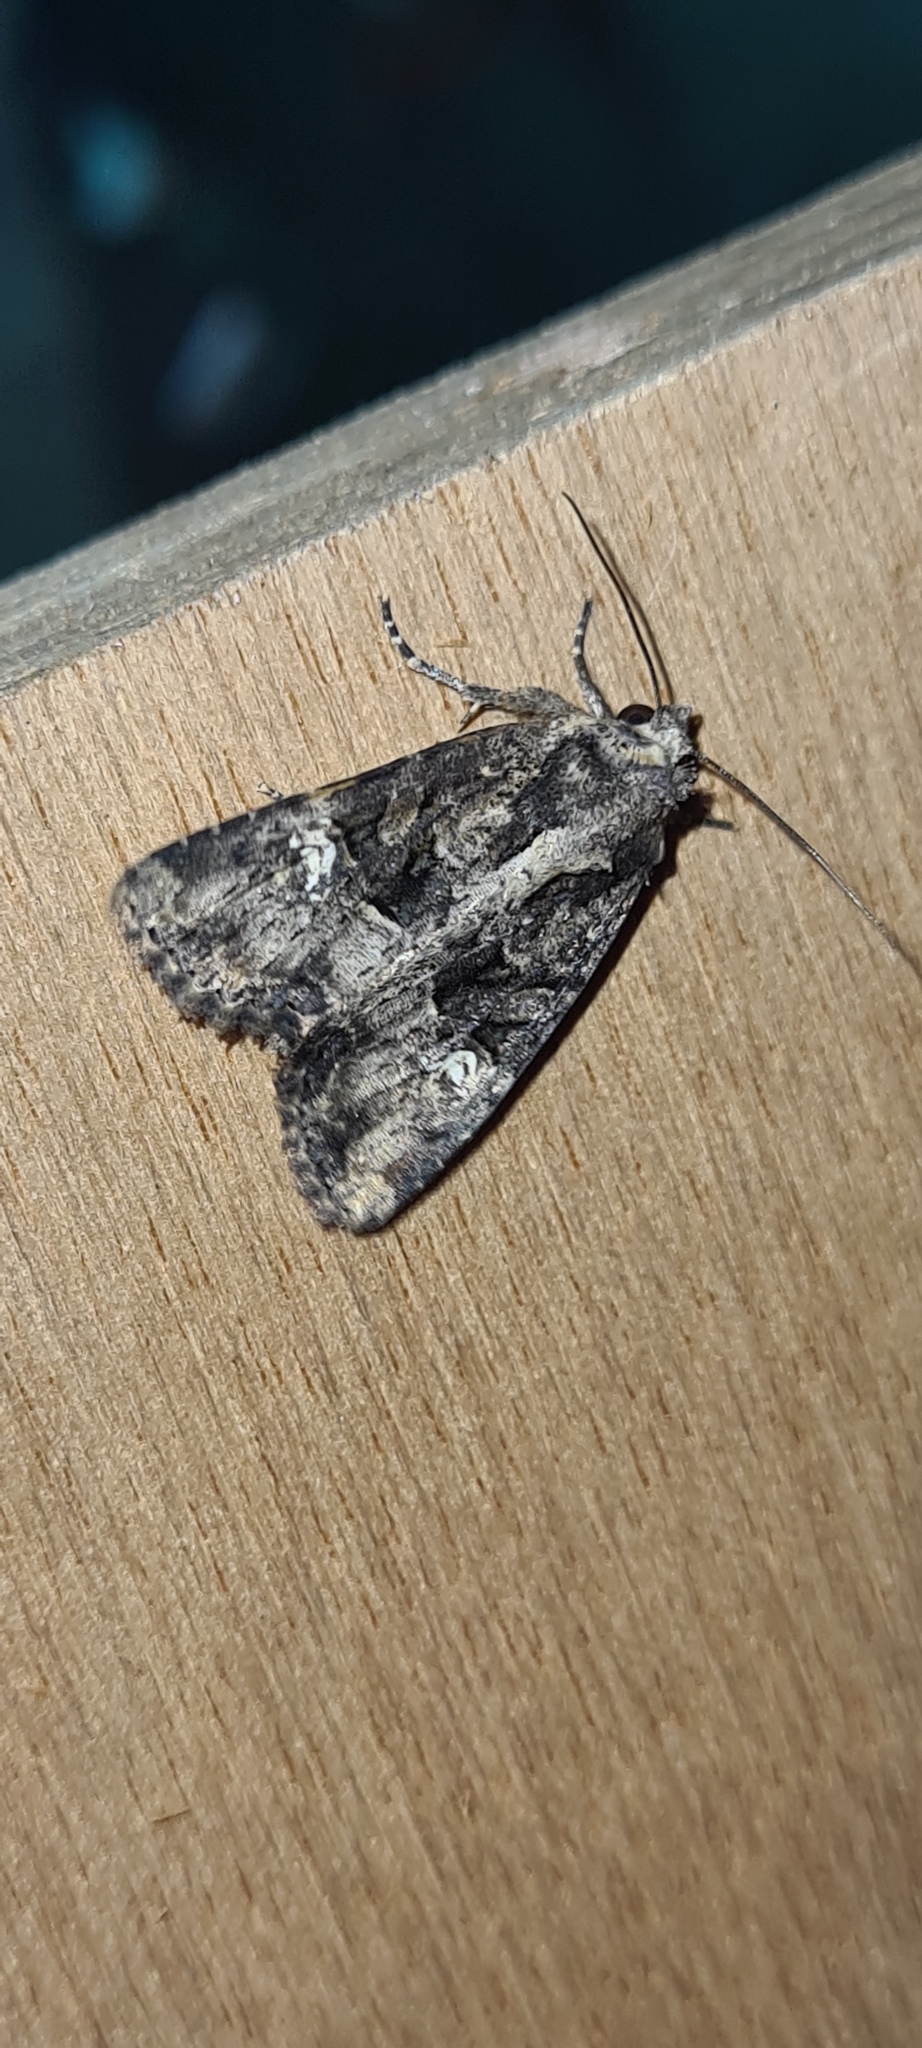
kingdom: Animalia
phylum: Arthropoda
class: Insecta
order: Lepidoptera
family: Noctuidae
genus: Mesapamea
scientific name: Mesapamea
